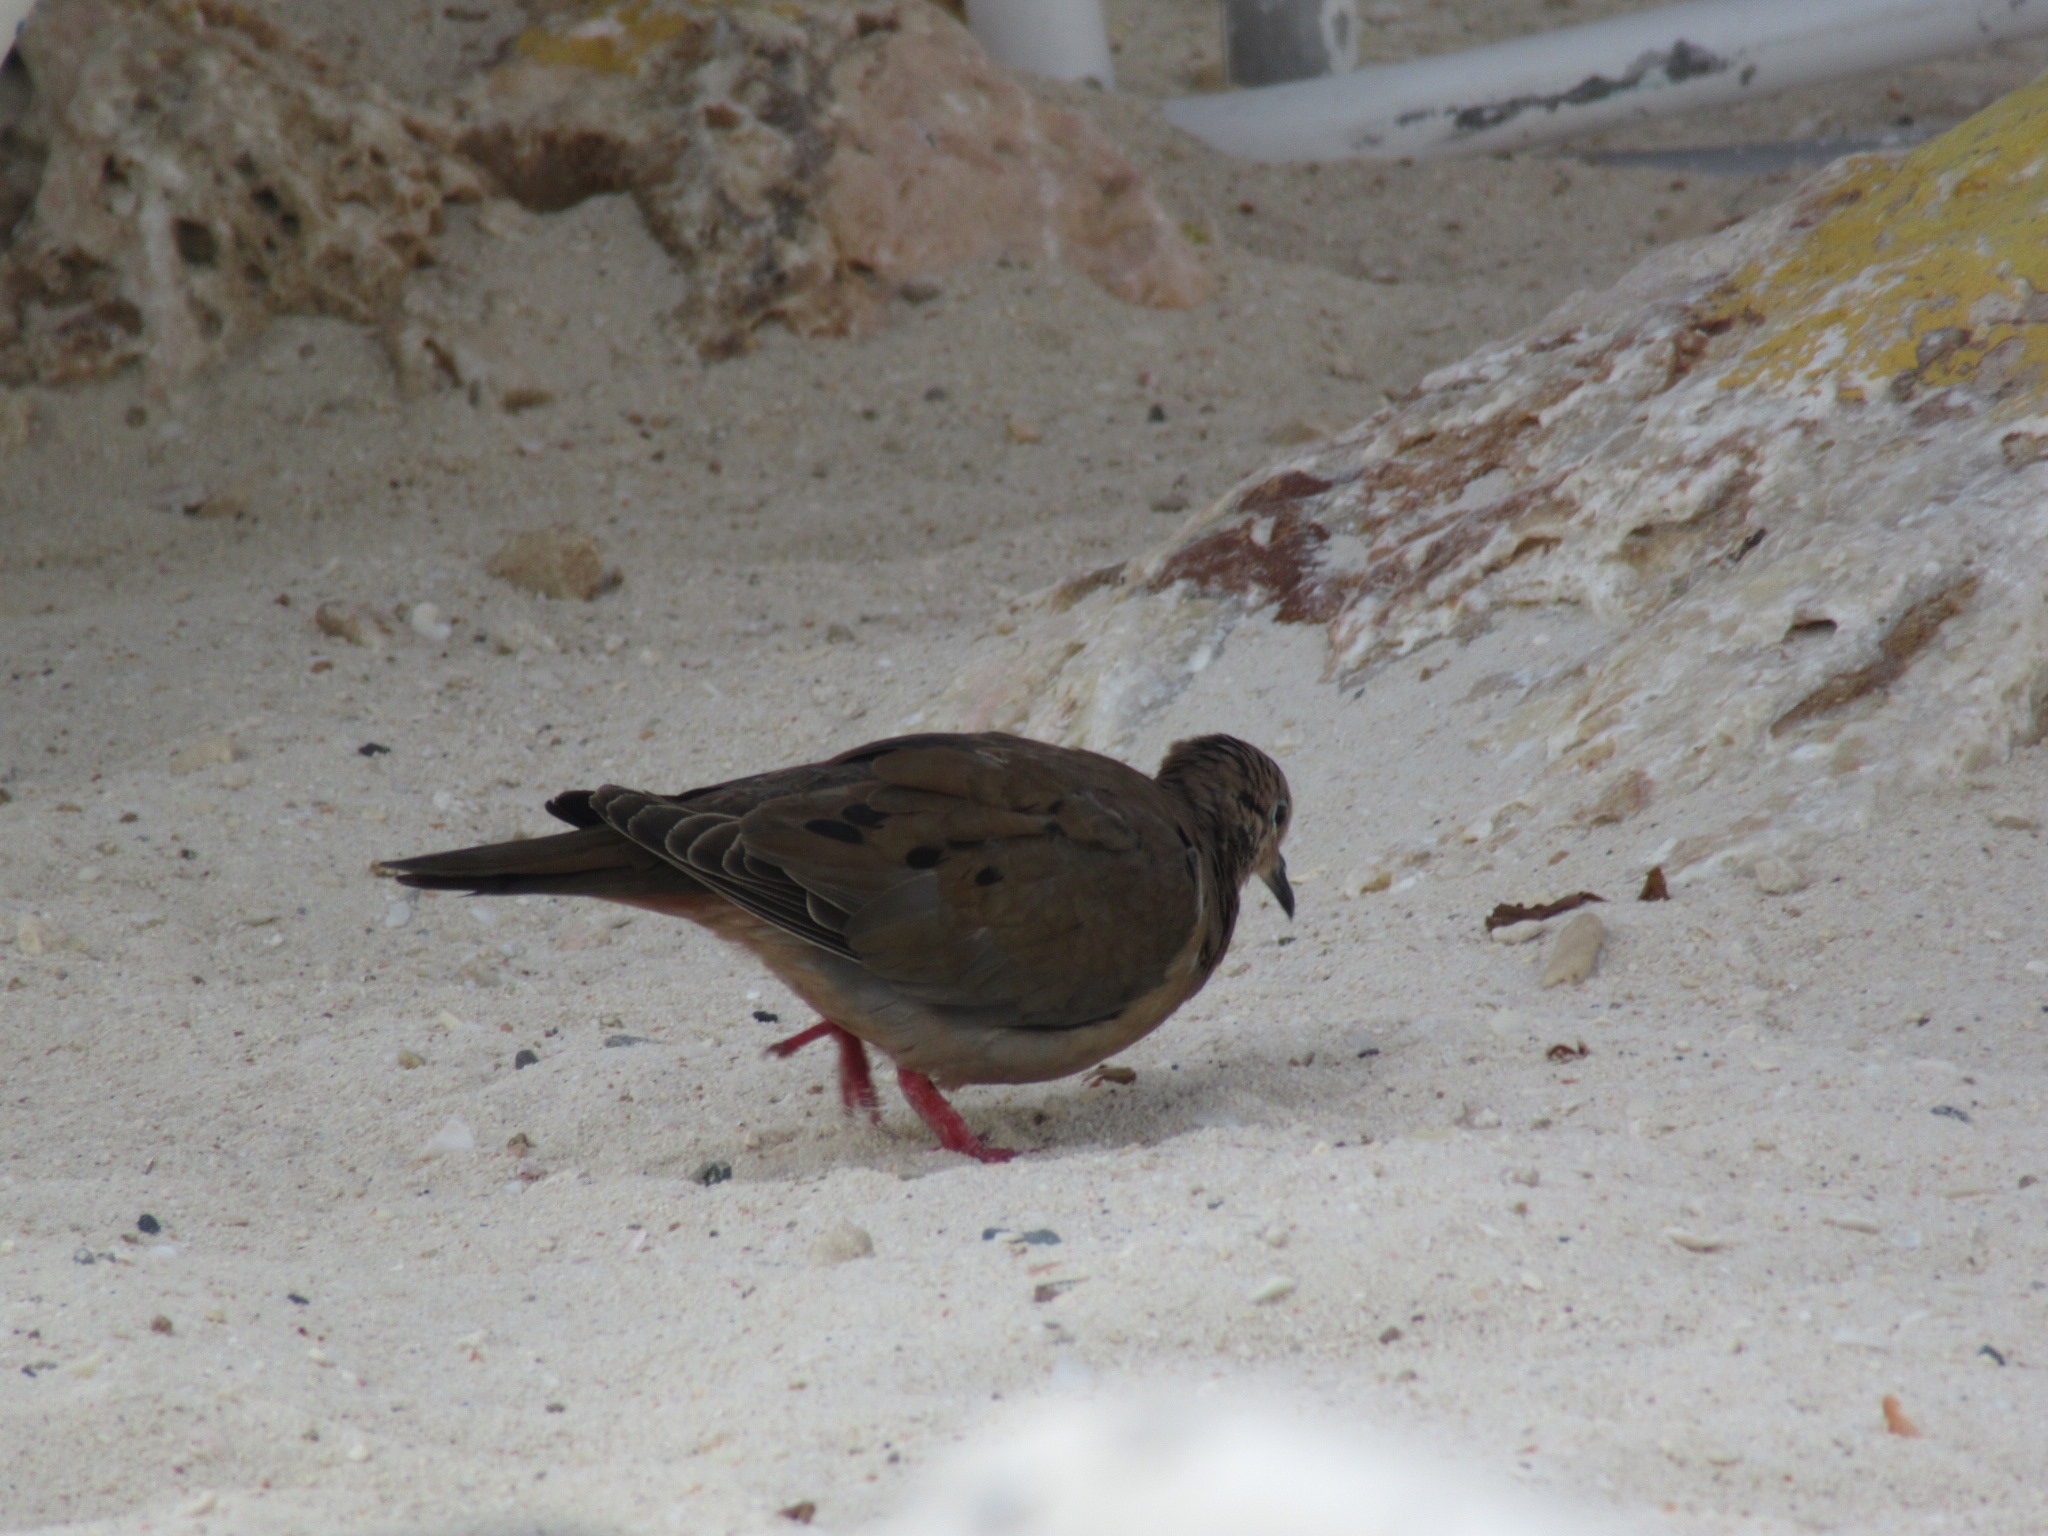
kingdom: Animalia
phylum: Chordata
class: Aves
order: Columbiformes
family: Columbidae
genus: Zenaida
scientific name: Zenaida auriculata
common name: Eared dove
